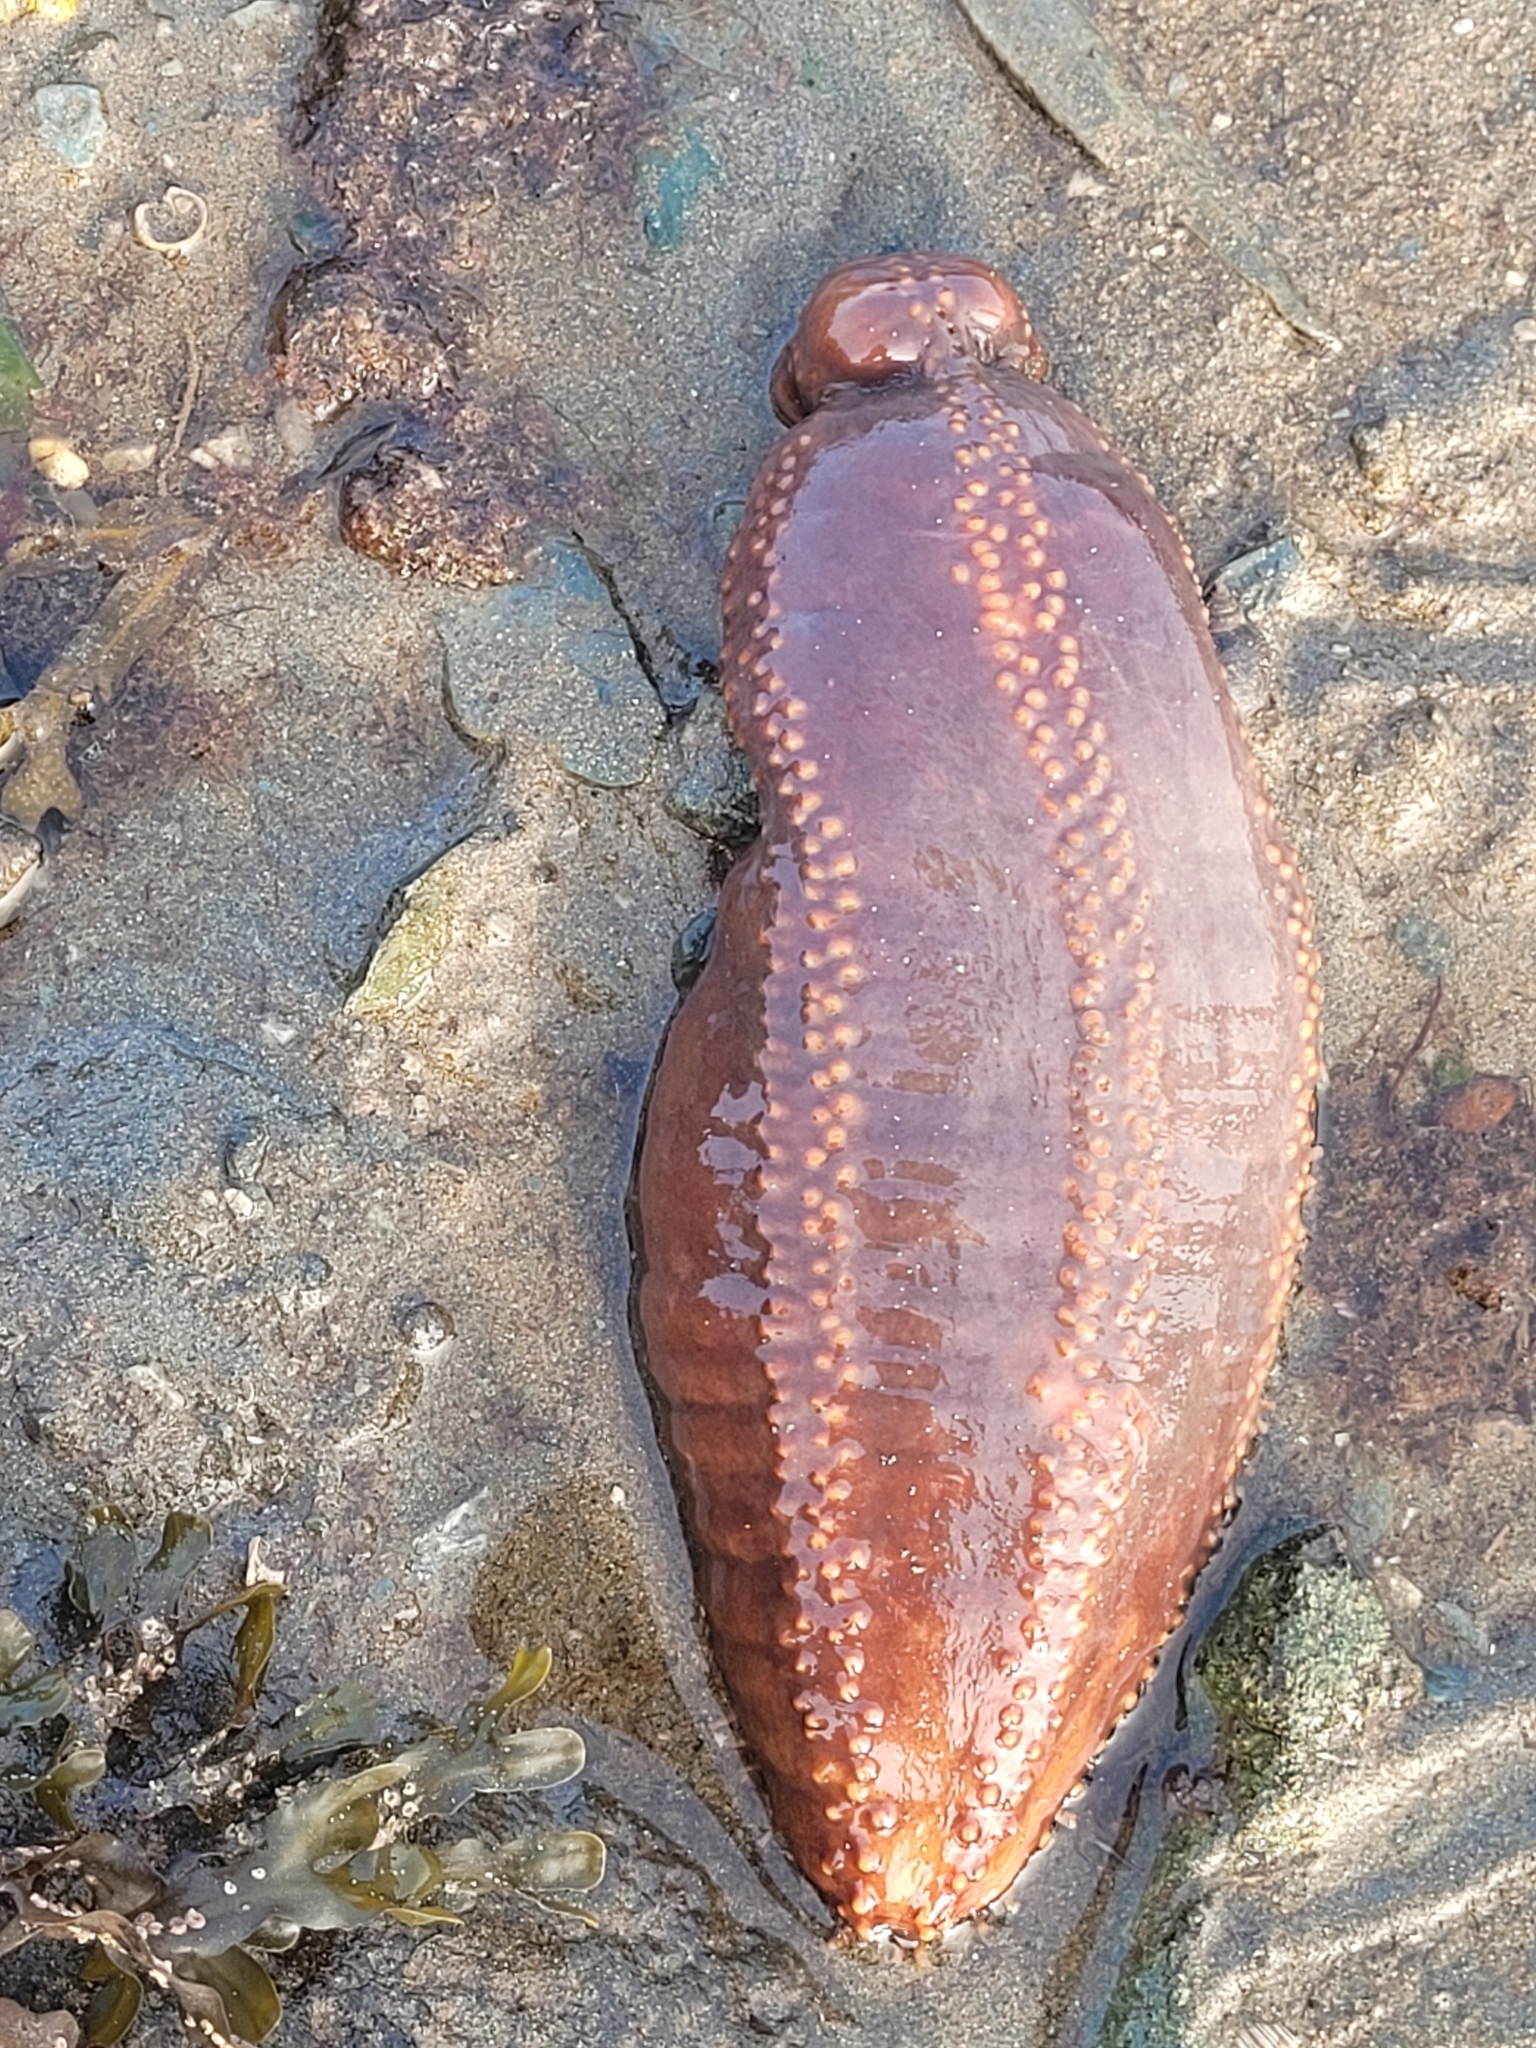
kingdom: Animalia
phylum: Echinodermata
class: Holothuroidea
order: Dendrochirotida
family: Cucumariidae
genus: Cucumaria
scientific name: Cucumaria frondosa
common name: Orange-footed sea cucumber
